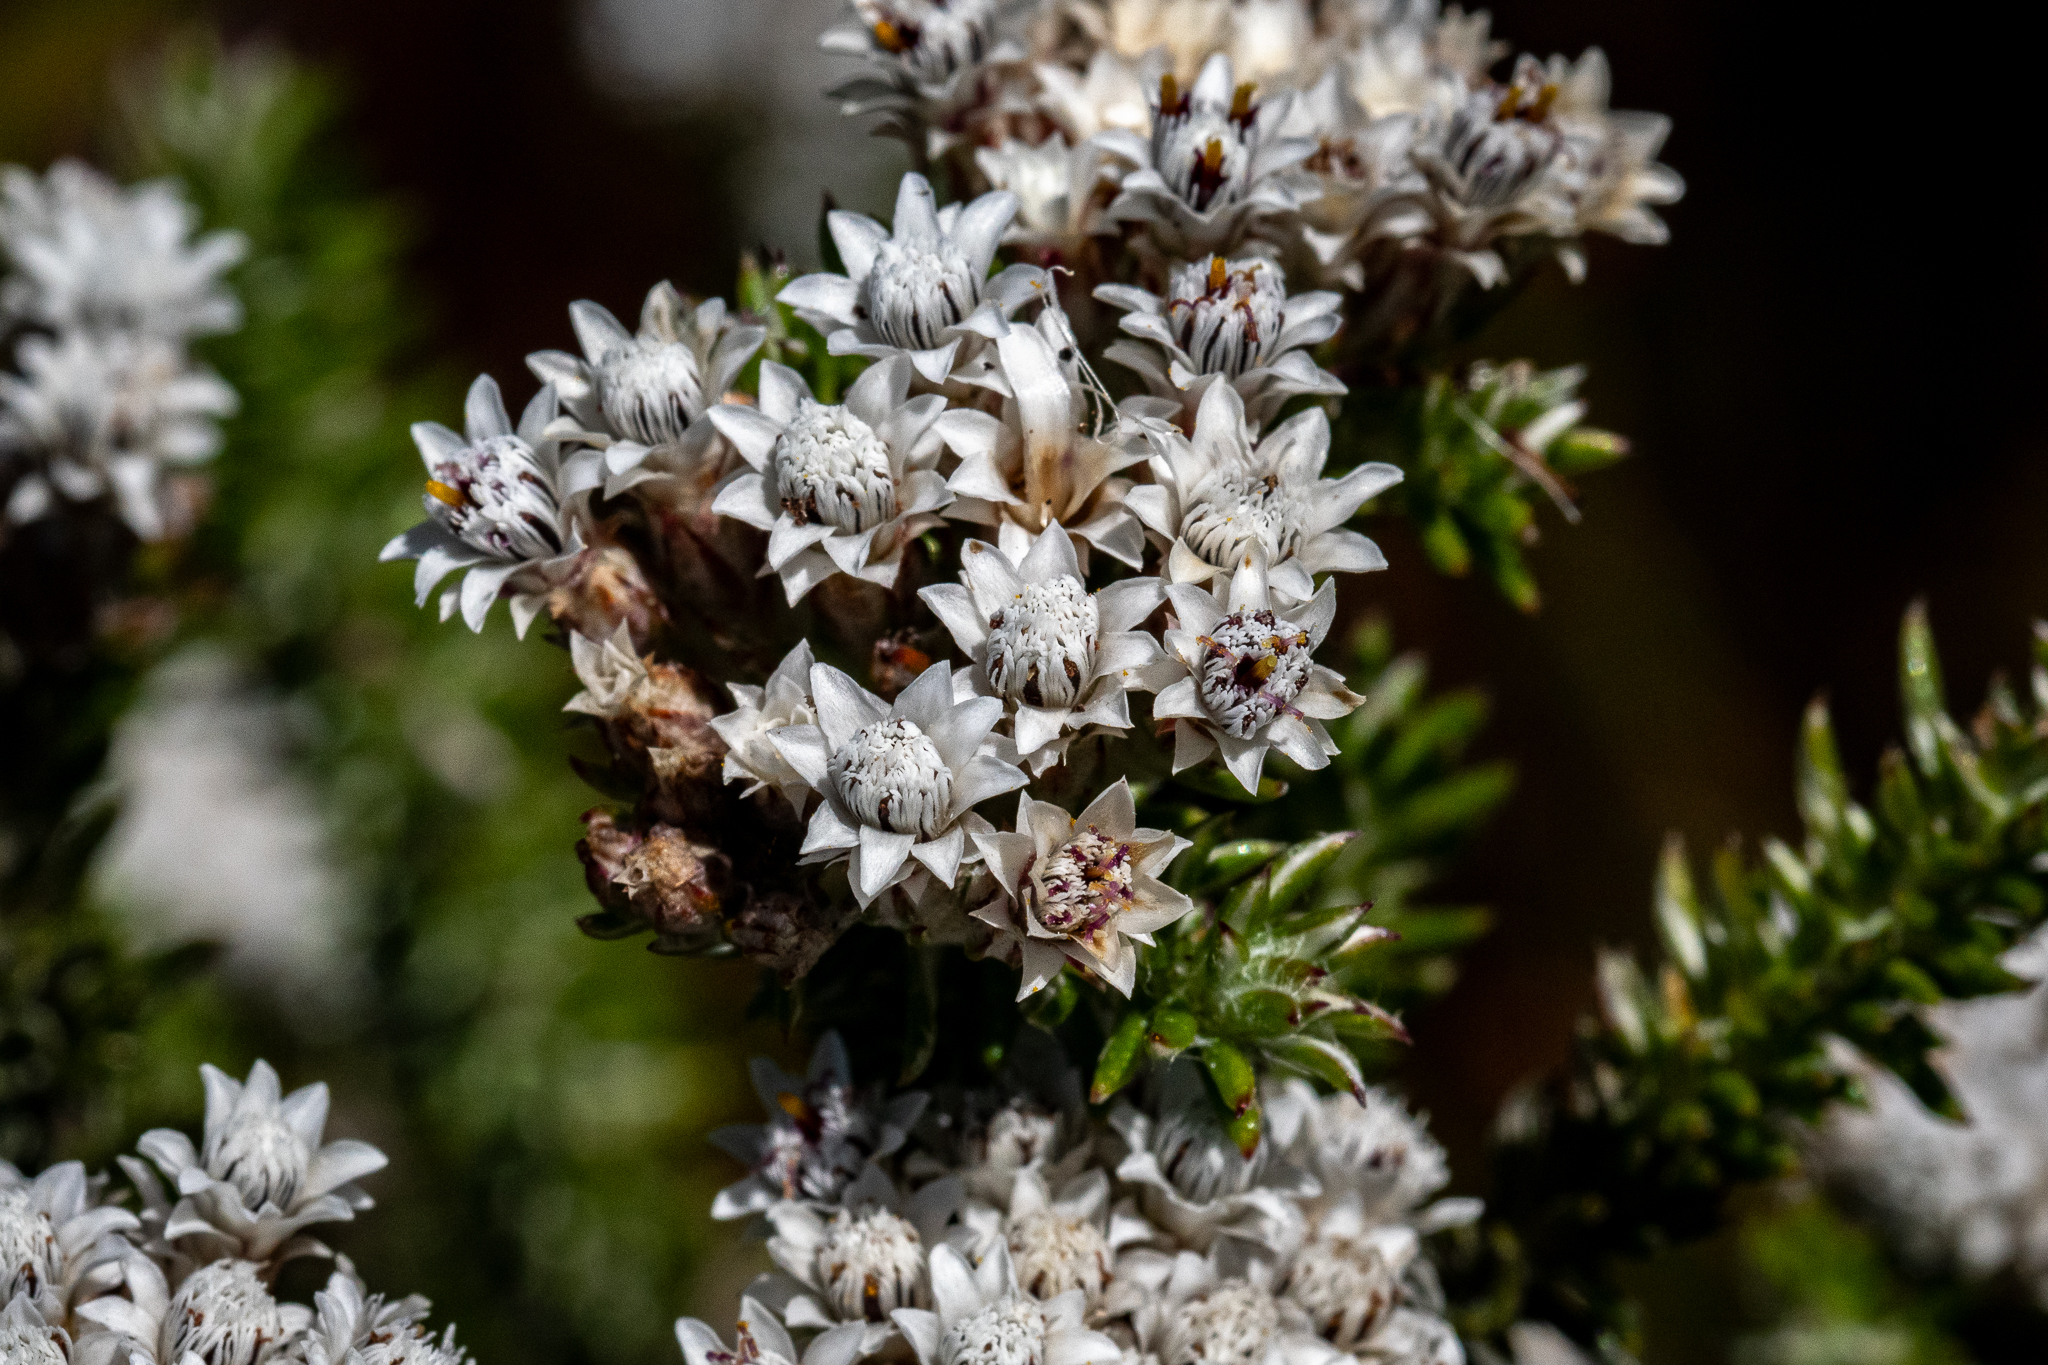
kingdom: Plantae
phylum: Tracheophyta
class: Magnoliopsida
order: Asterales
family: Asteraceae
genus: Metalasia
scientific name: Metalasia lichtensteinii
